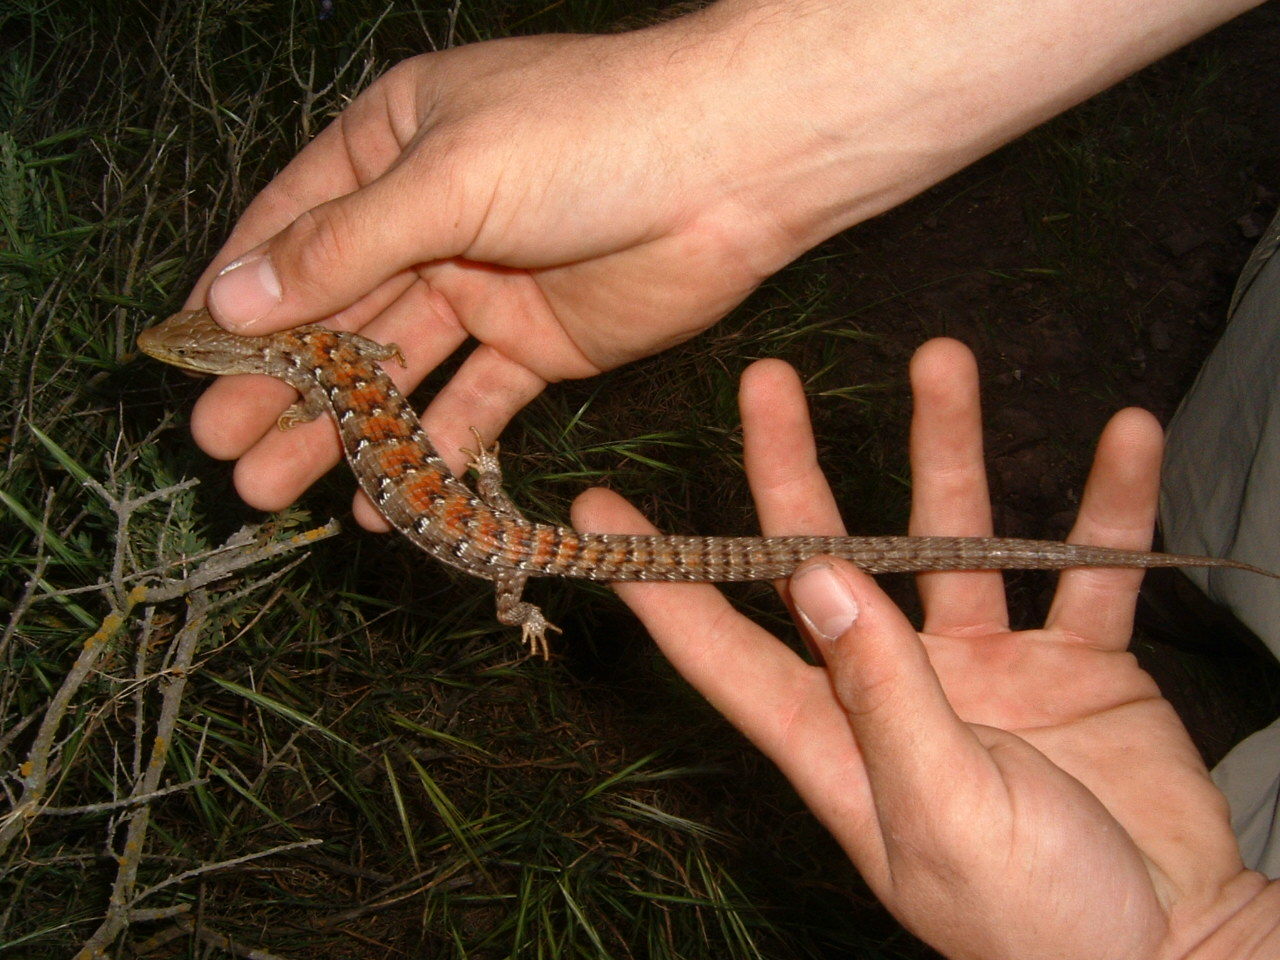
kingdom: Animalia
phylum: Chordata
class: Squamata
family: Anguidae
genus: Elgaria
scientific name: Elgaria multicarinata
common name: Southern alligator lizard
